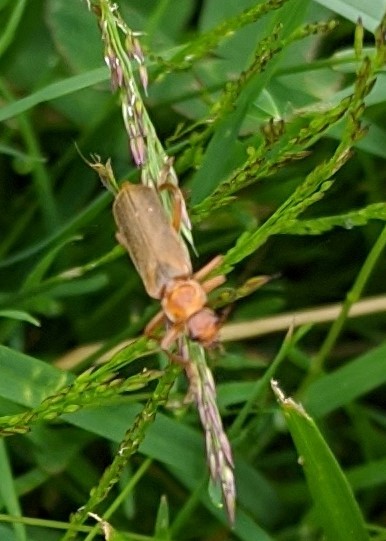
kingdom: Animalia
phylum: Arthropoda
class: Insecta
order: Coleoptera
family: Cantharidae
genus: Cantharis
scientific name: Cantharis rufa
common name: Red-spotted soldier beetle
